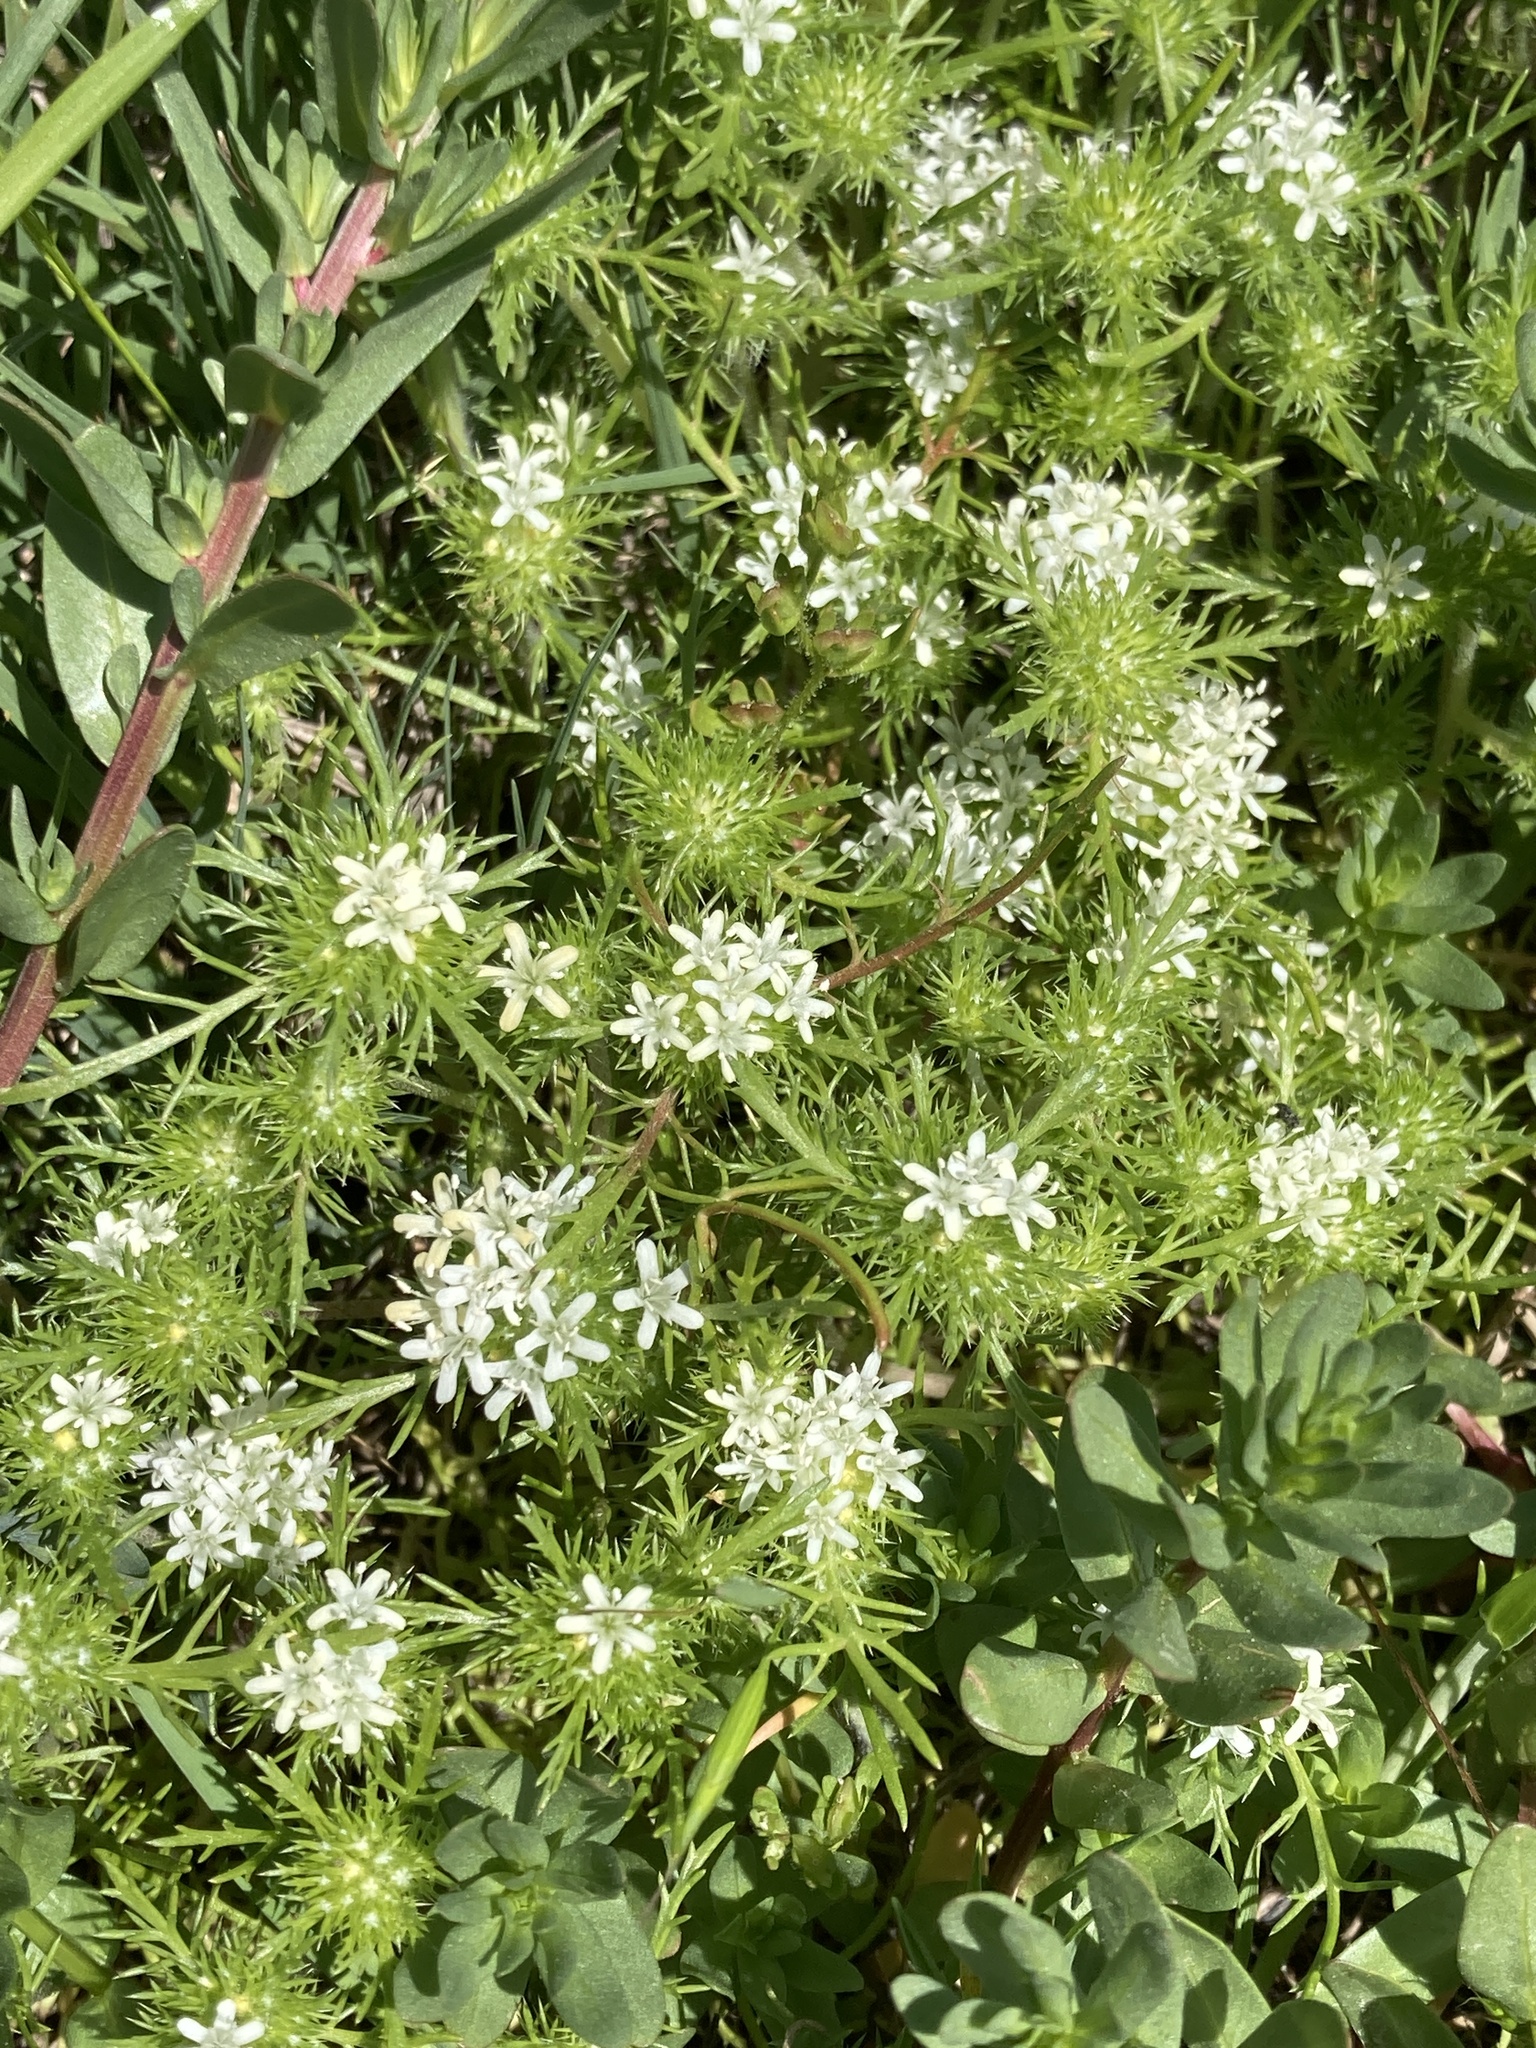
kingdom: Plantae
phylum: Tracheophyta
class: Magnoliopsida
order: Ericales
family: Polemoniaceae
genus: Navarretia
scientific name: Navarretia leucocephala
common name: White-flowered navarretia
